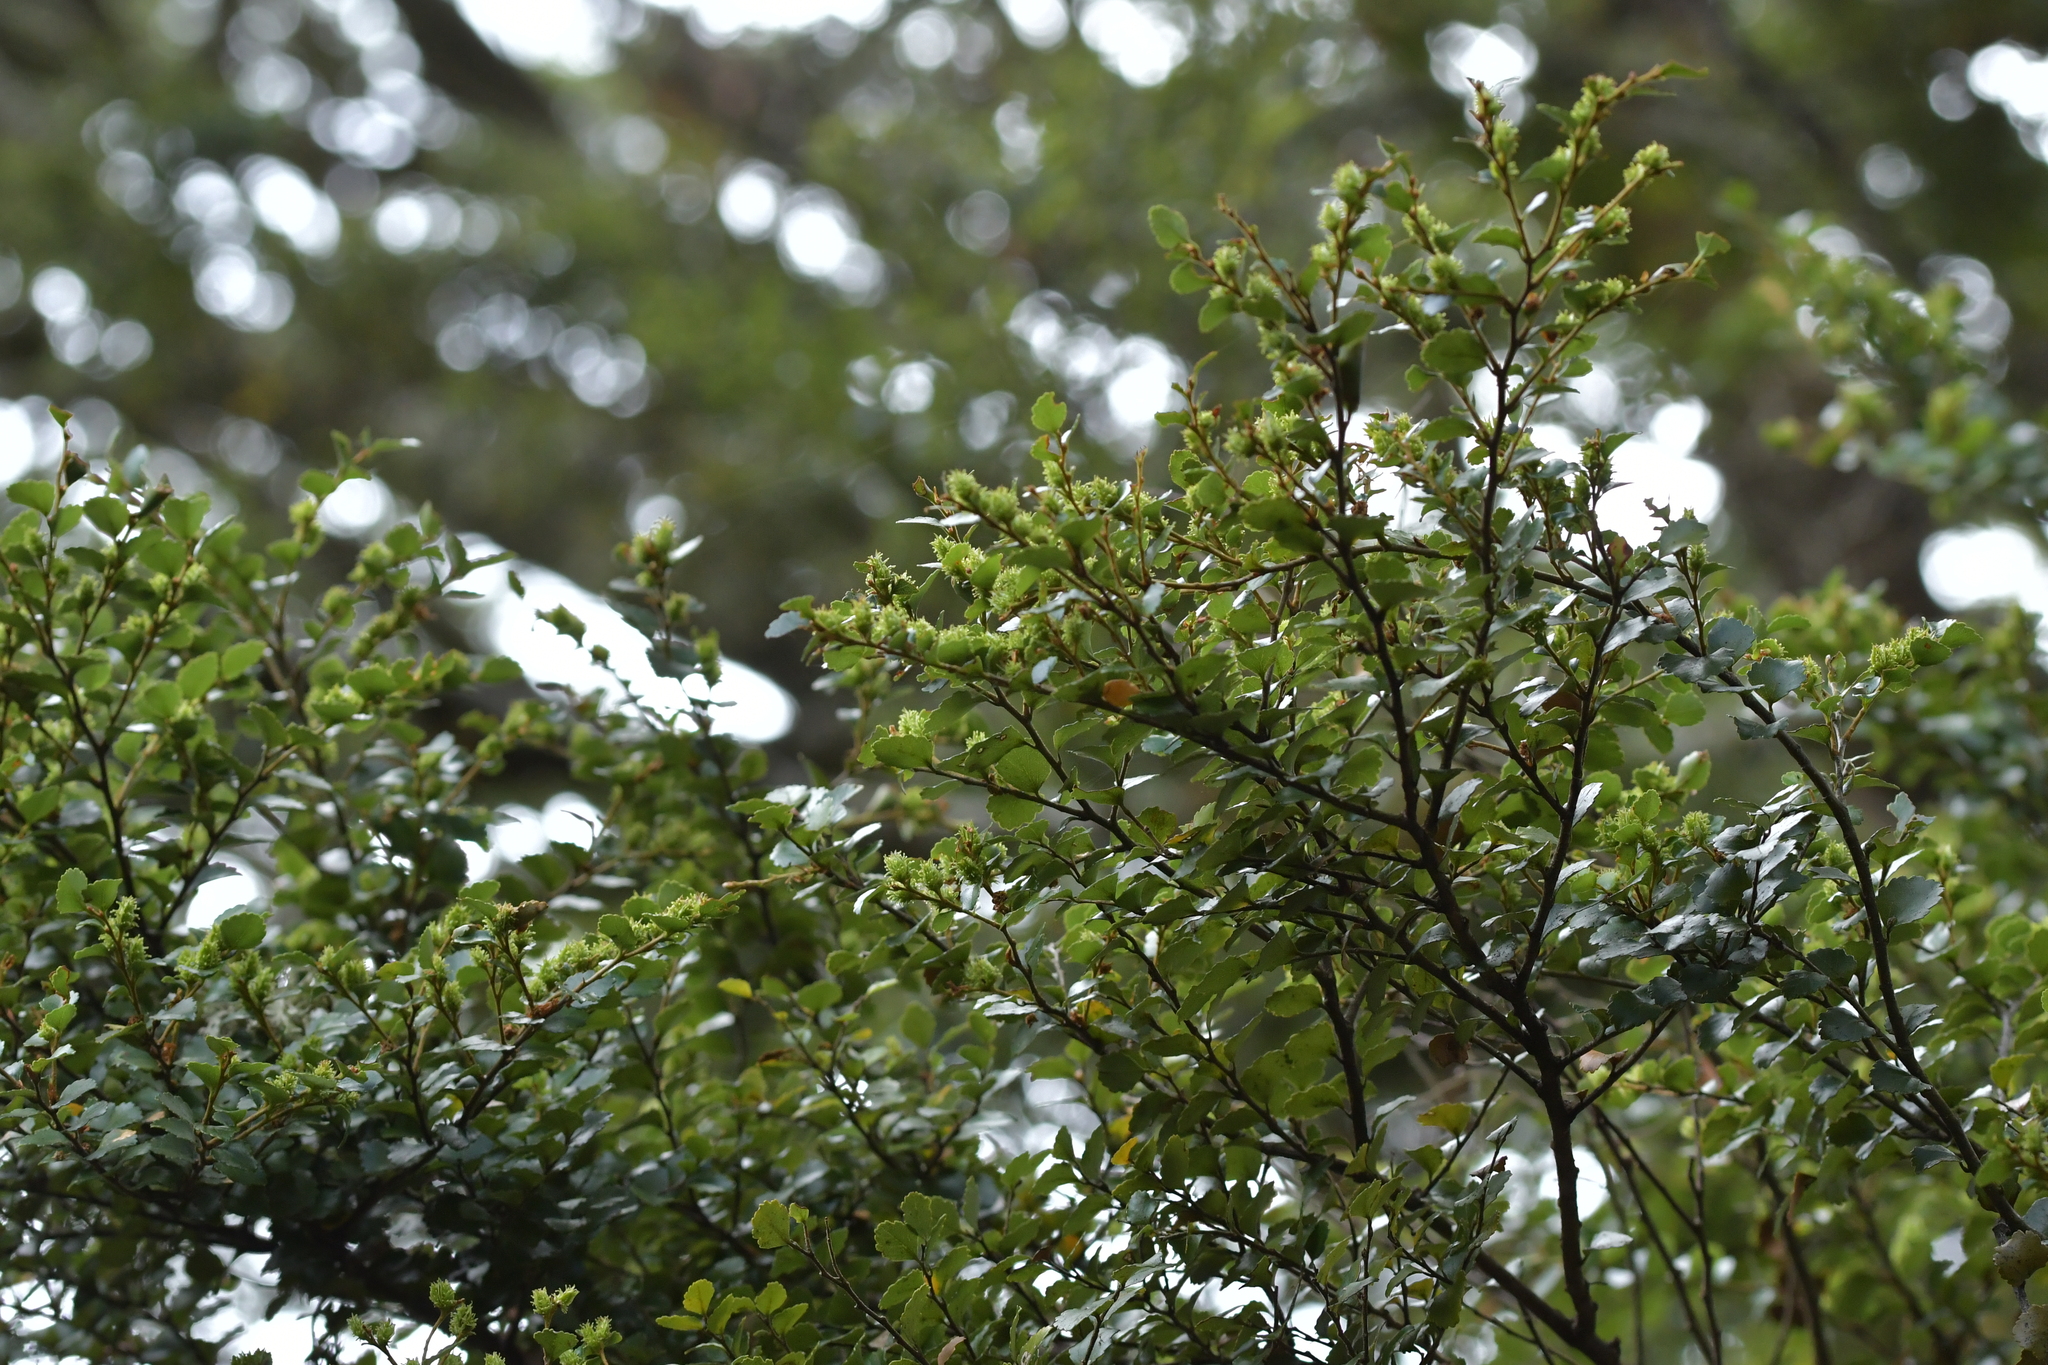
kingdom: Plantae
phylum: Tracheophyta
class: Magnoliopsida
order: Fagales
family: Nothofagaceae
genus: Nothofagus
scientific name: Nothofagus menziesii
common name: Silver beech
